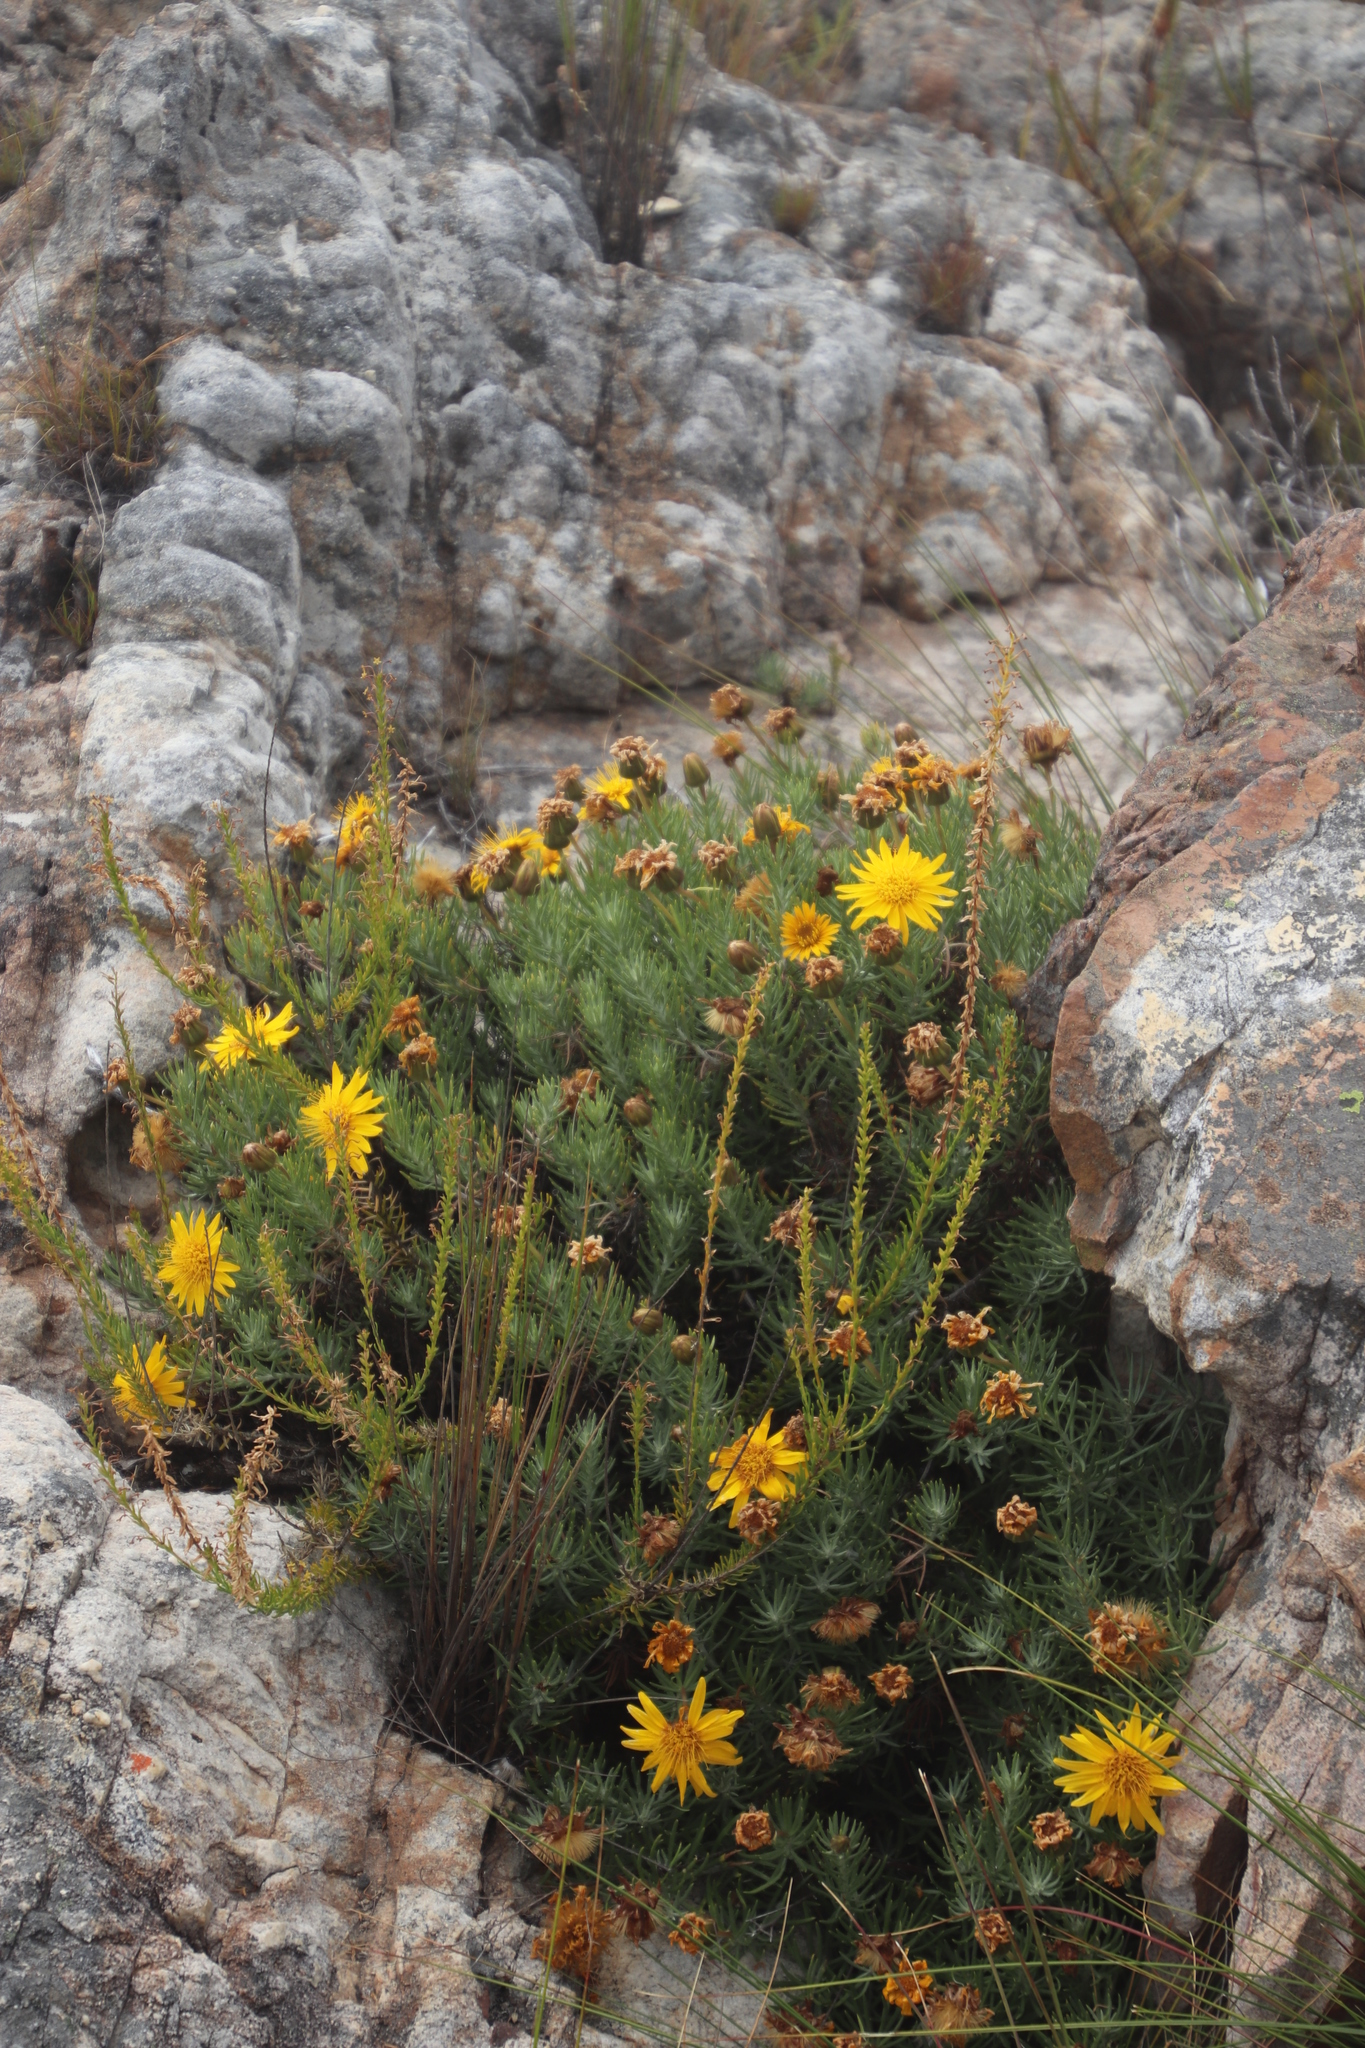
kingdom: Plantae
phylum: Tracheophyta
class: Magnoliopsida
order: Asterales
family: Asteraceae
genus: Heterolepis
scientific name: Heterolepis aliena
